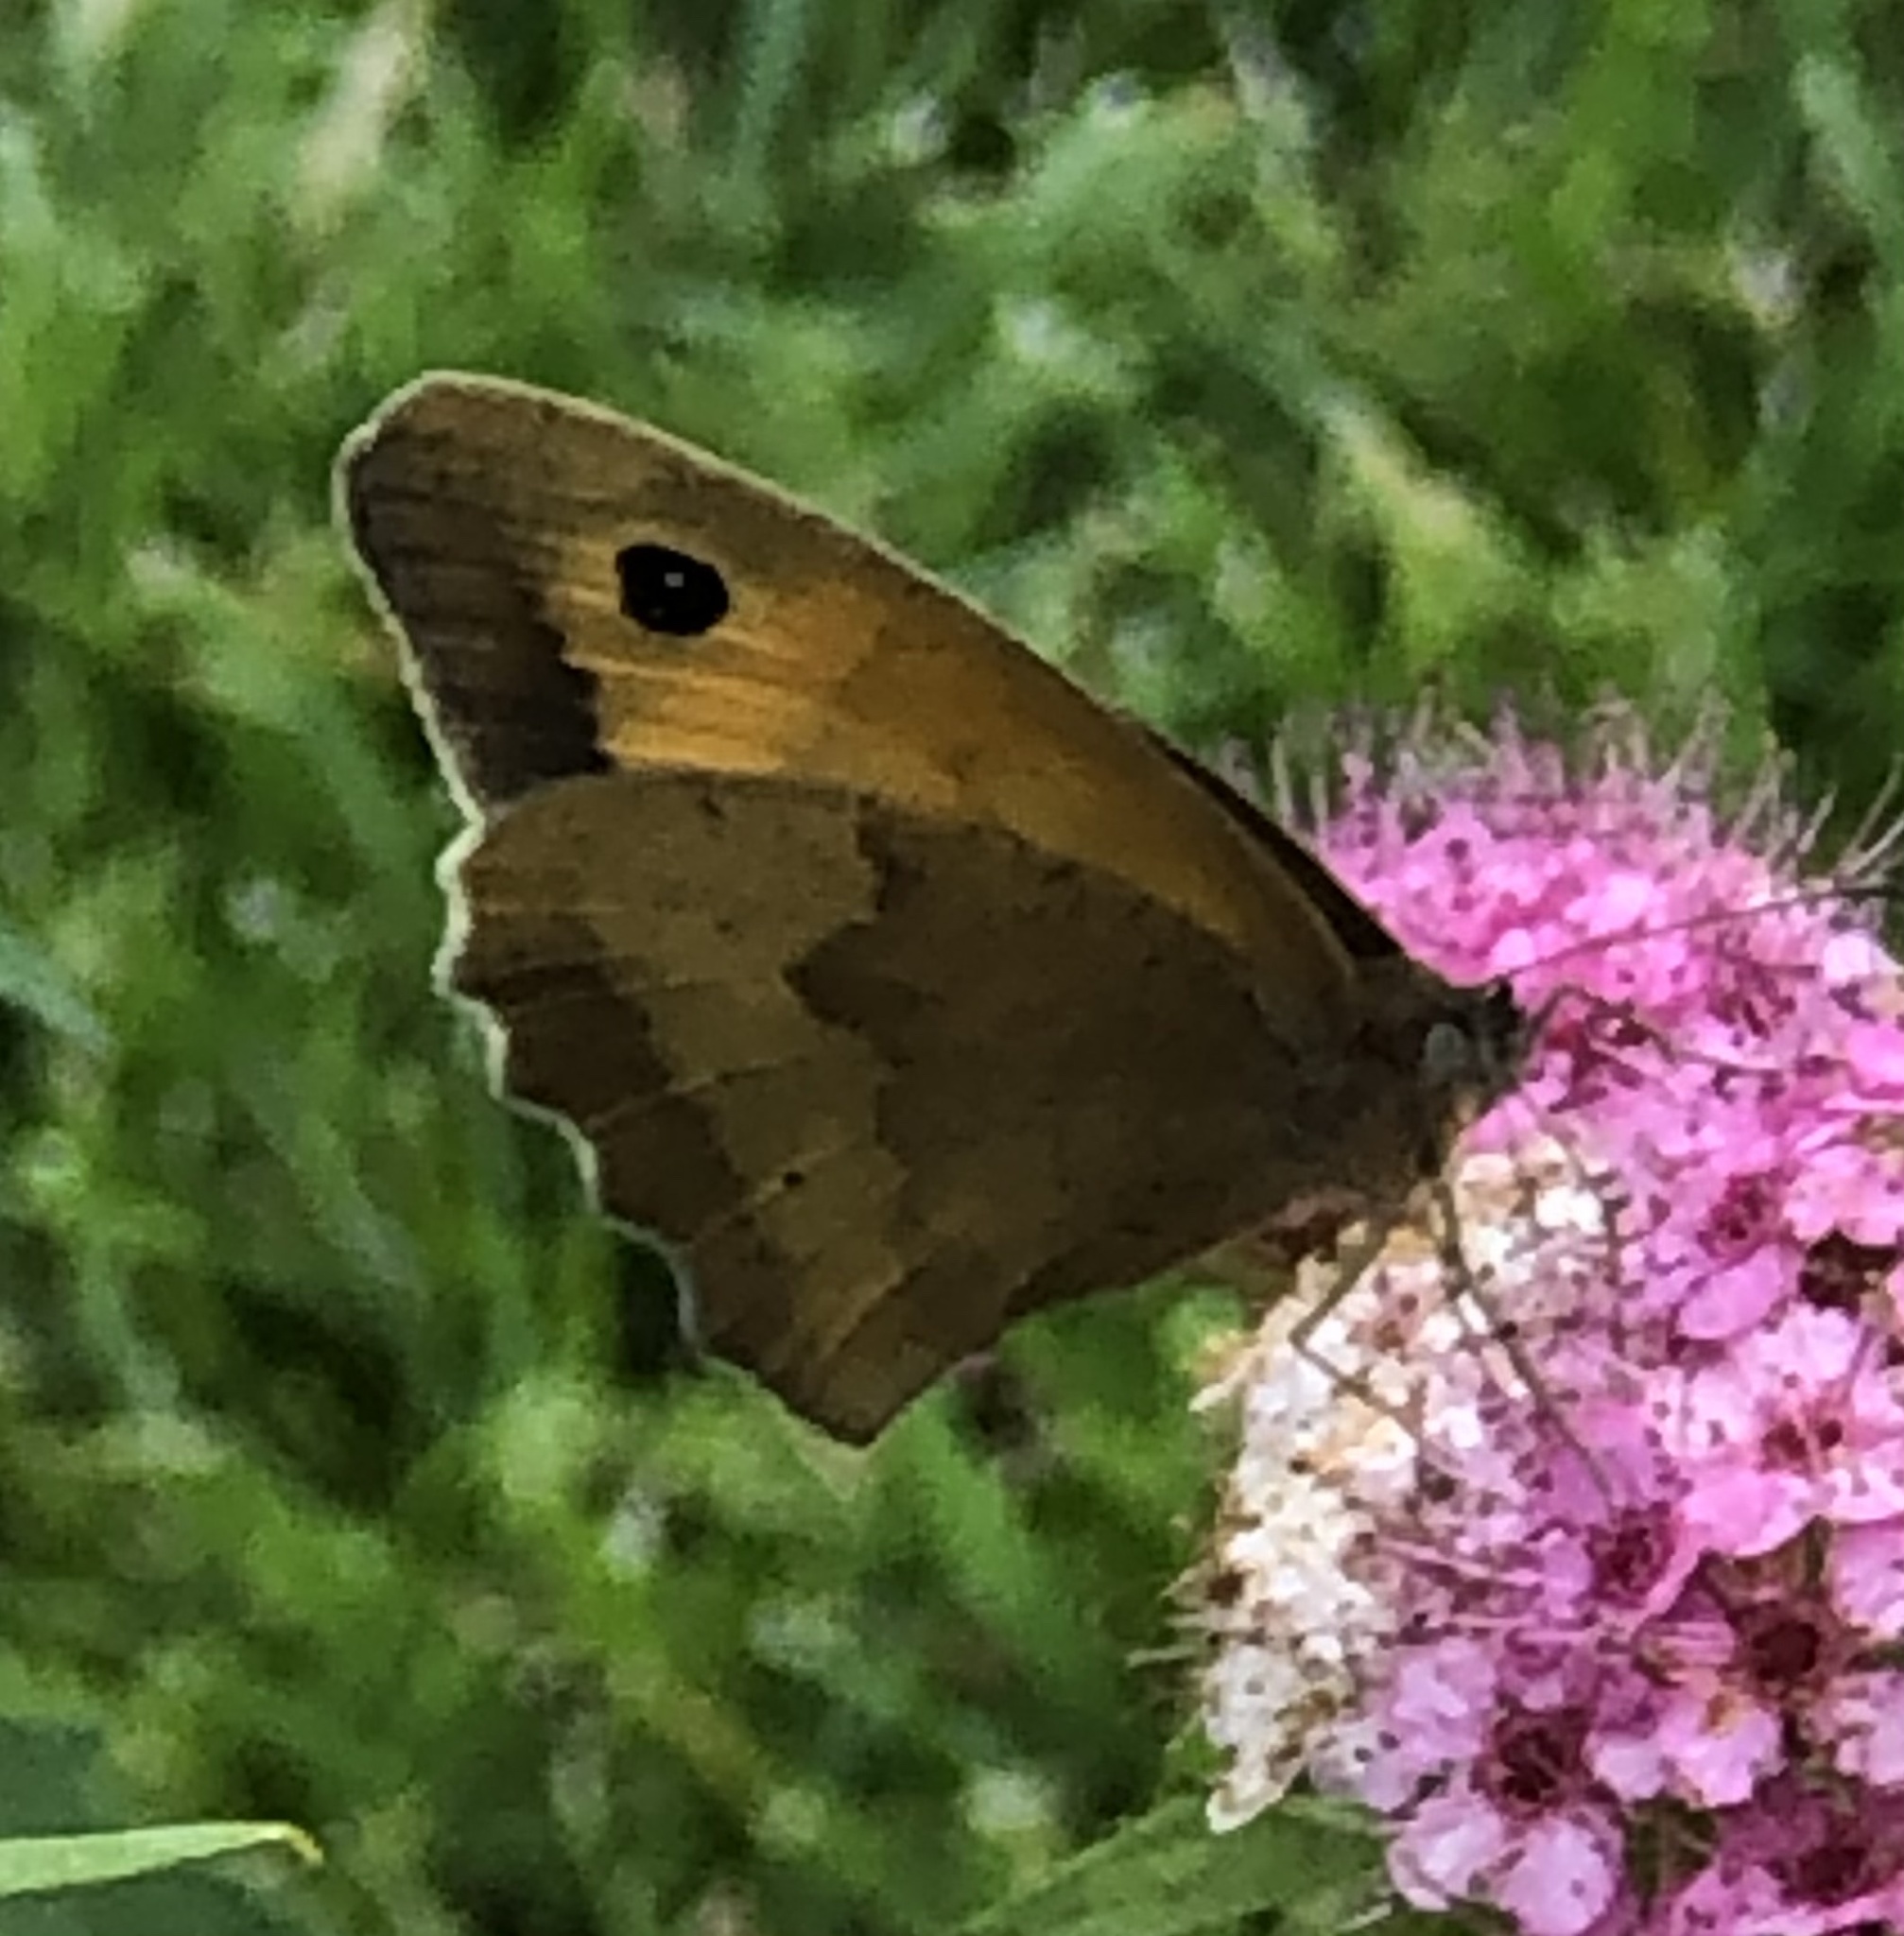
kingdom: Animalia
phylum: Arthropoda
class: Insecta
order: Lepidoptera
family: Nymphalidae
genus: Maniola
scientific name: Maniola jurtina
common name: Meadow brown
